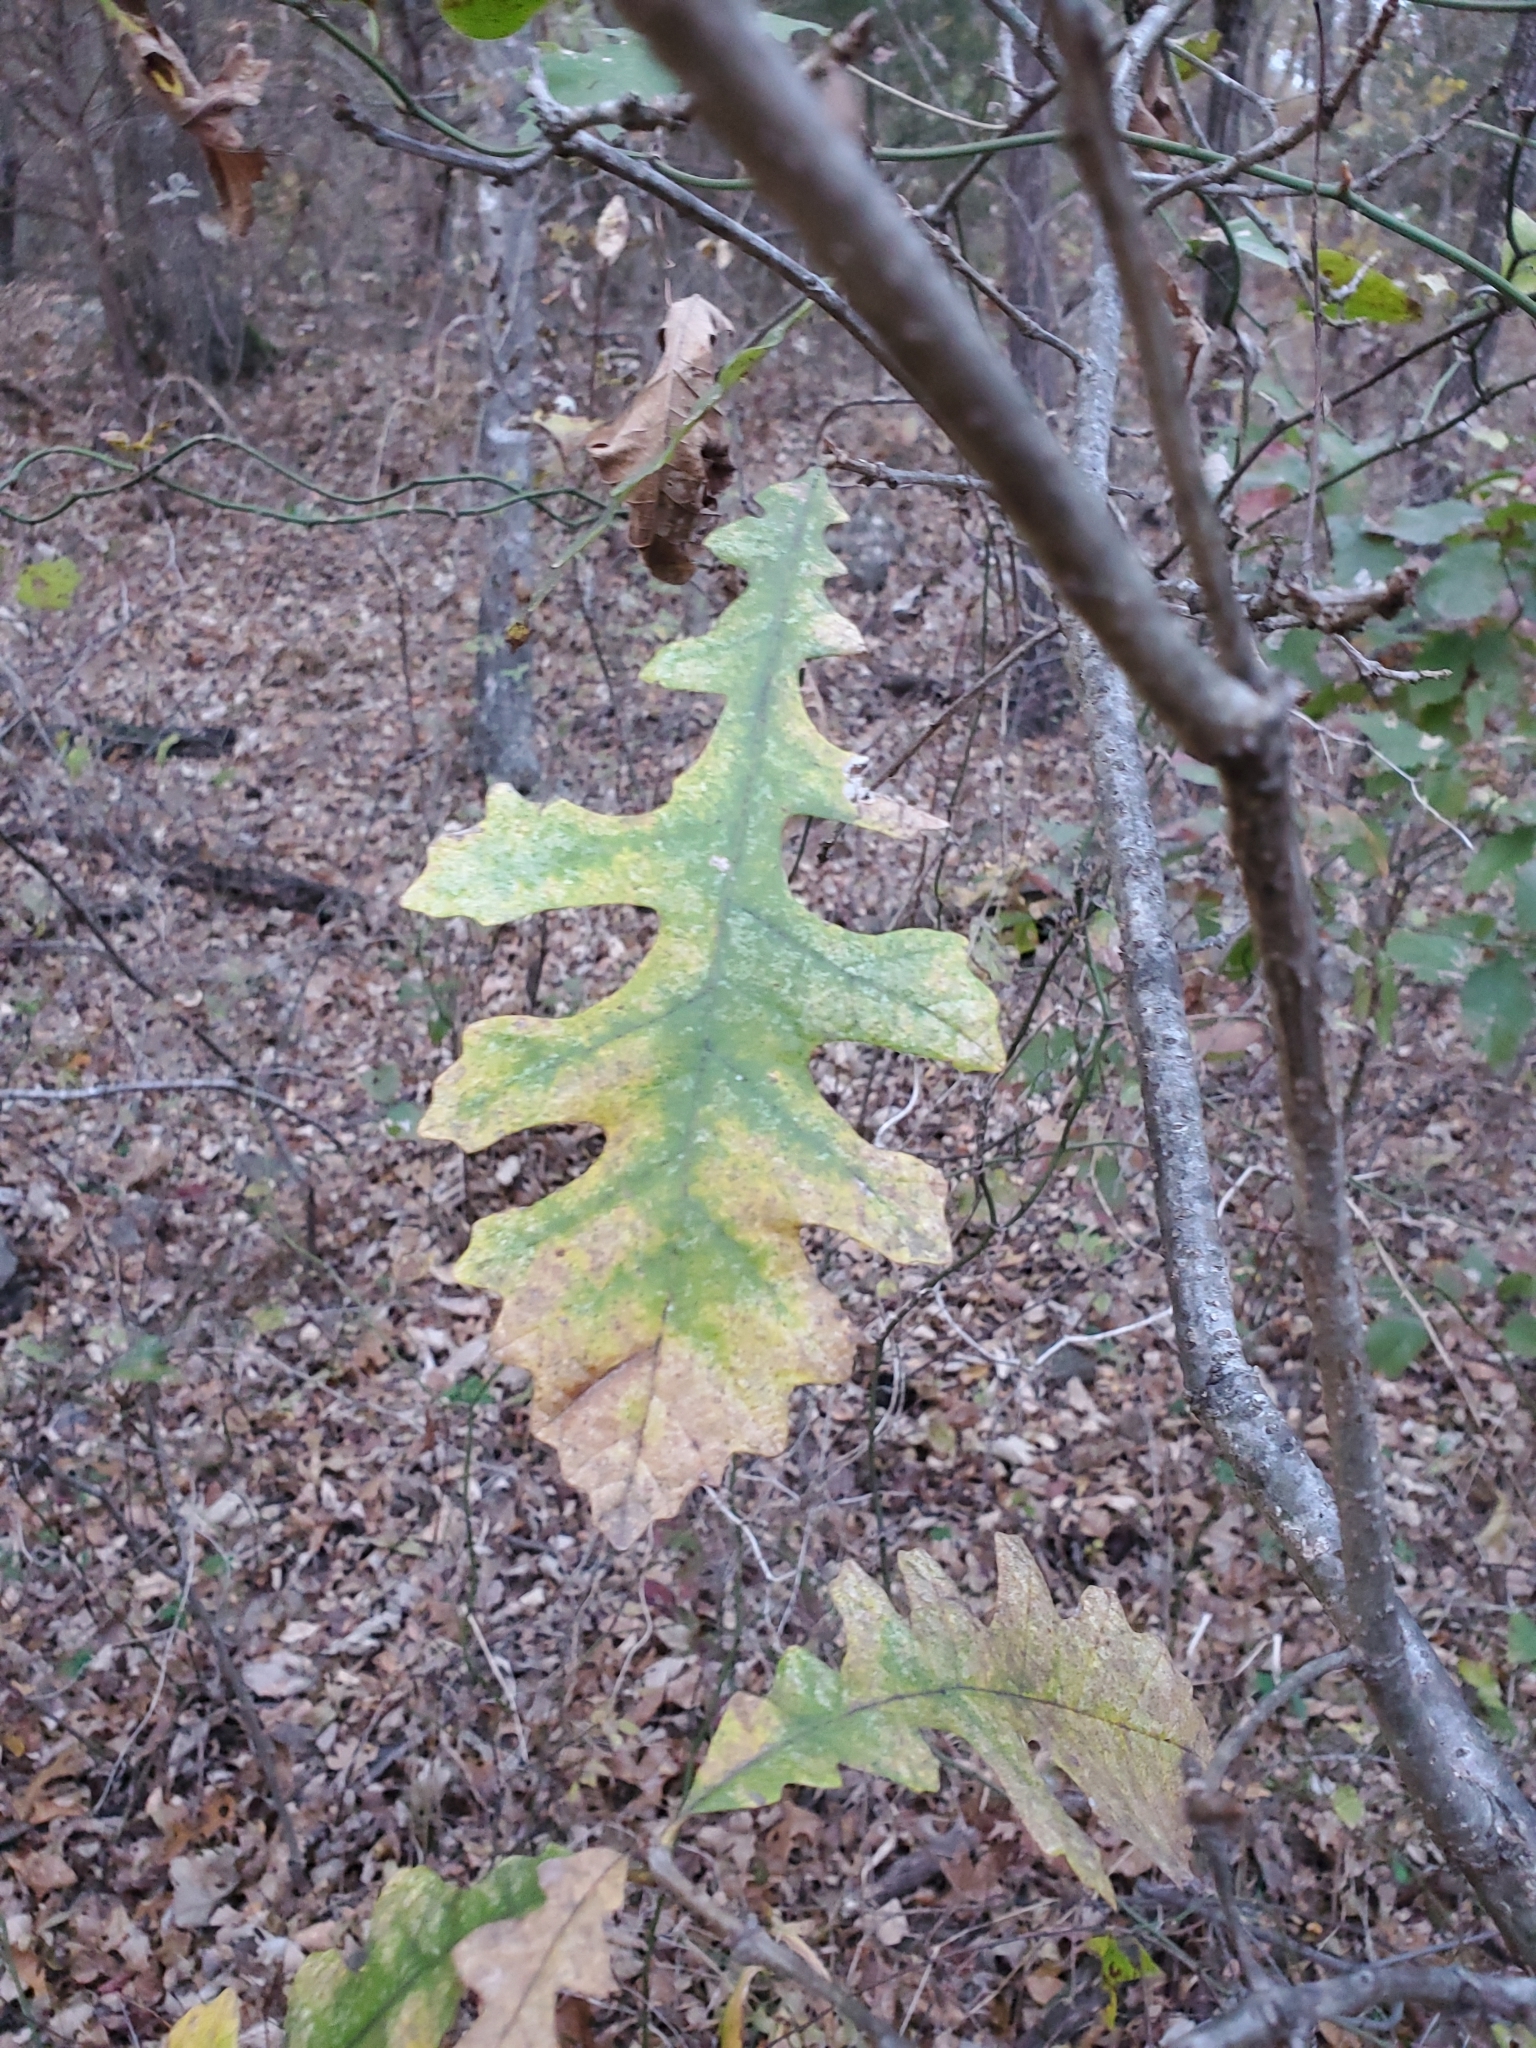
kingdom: Plantae
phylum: Tracheophyta
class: Magnoliopsida
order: Fagales
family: Fagaceae
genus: Quercus
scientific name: Quercus macrocarpa
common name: Bur oak
